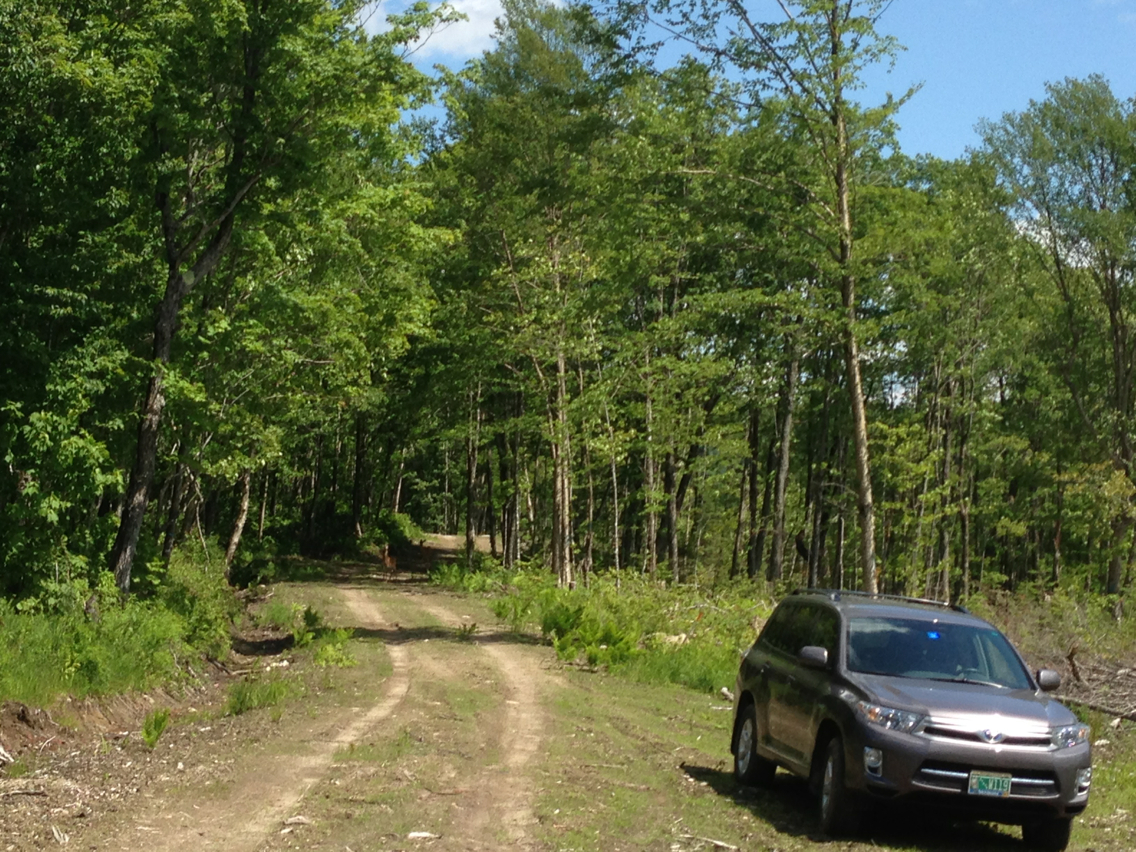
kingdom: Animalia
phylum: Chordata
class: Mammalia
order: Artiodactyla
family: Cervidae
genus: Odocoileus
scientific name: Odocoileus virginianus
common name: White-tailed deer
